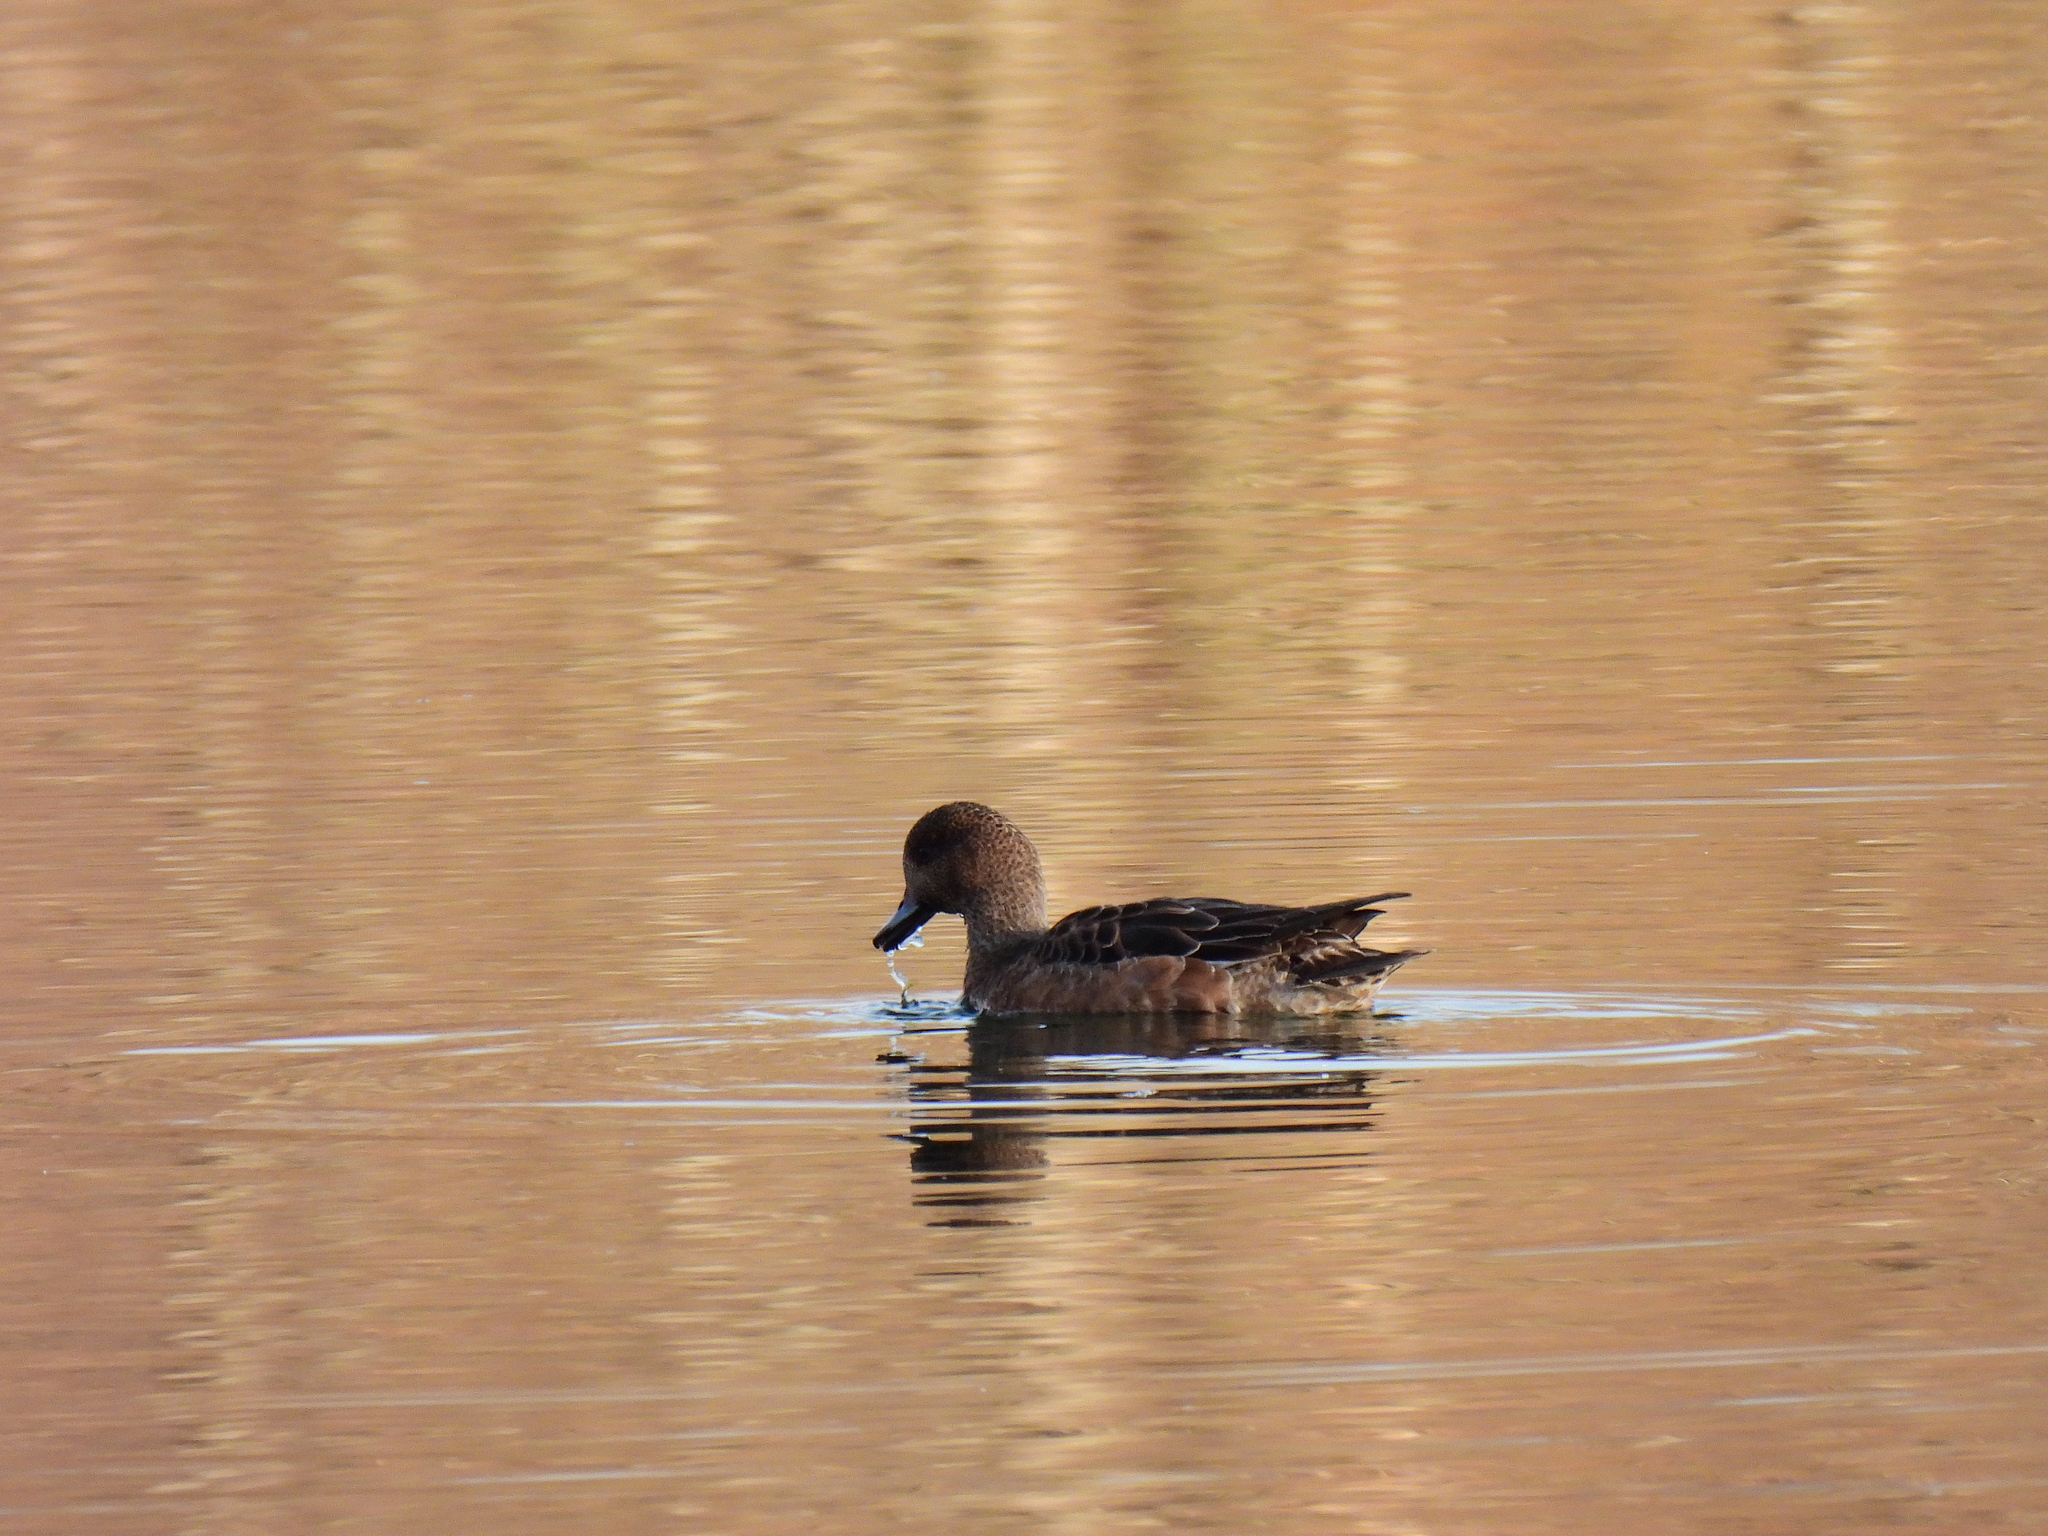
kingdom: Animalia
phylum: Chordata
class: Aves
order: Anseriformes
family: Anatidae
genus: Mareca
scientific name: Mareca penelope
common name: Eurasian wigeon
